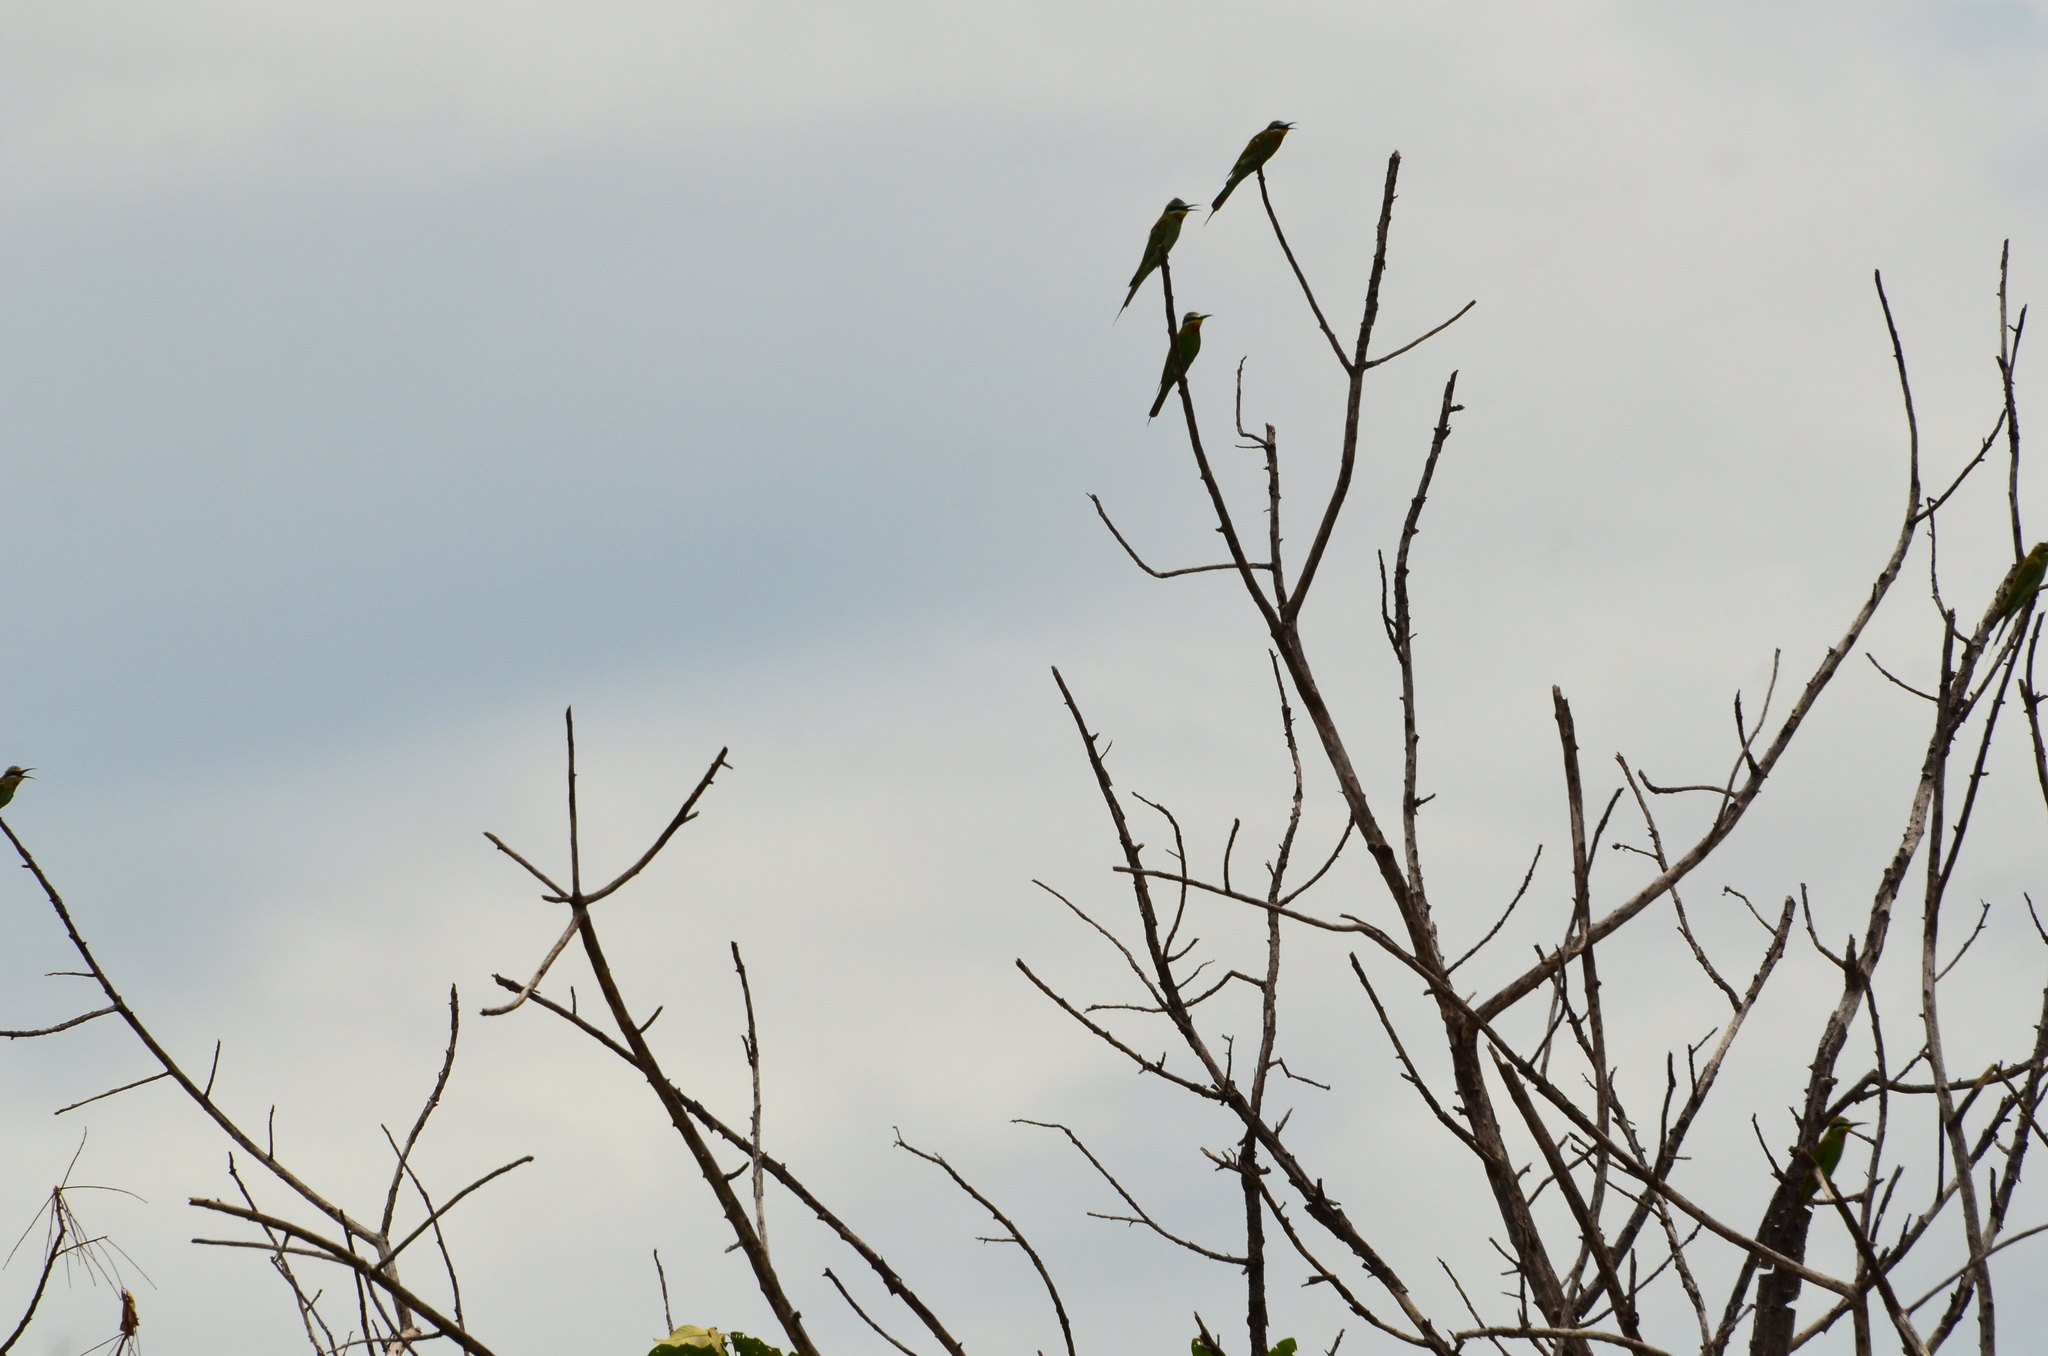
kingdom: Animalia
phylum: Chordata
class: Aves
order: Coraciiformes
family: Meropidae
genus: Merops
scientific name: Merops persicus
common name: Blue-cheeked bee-eater
